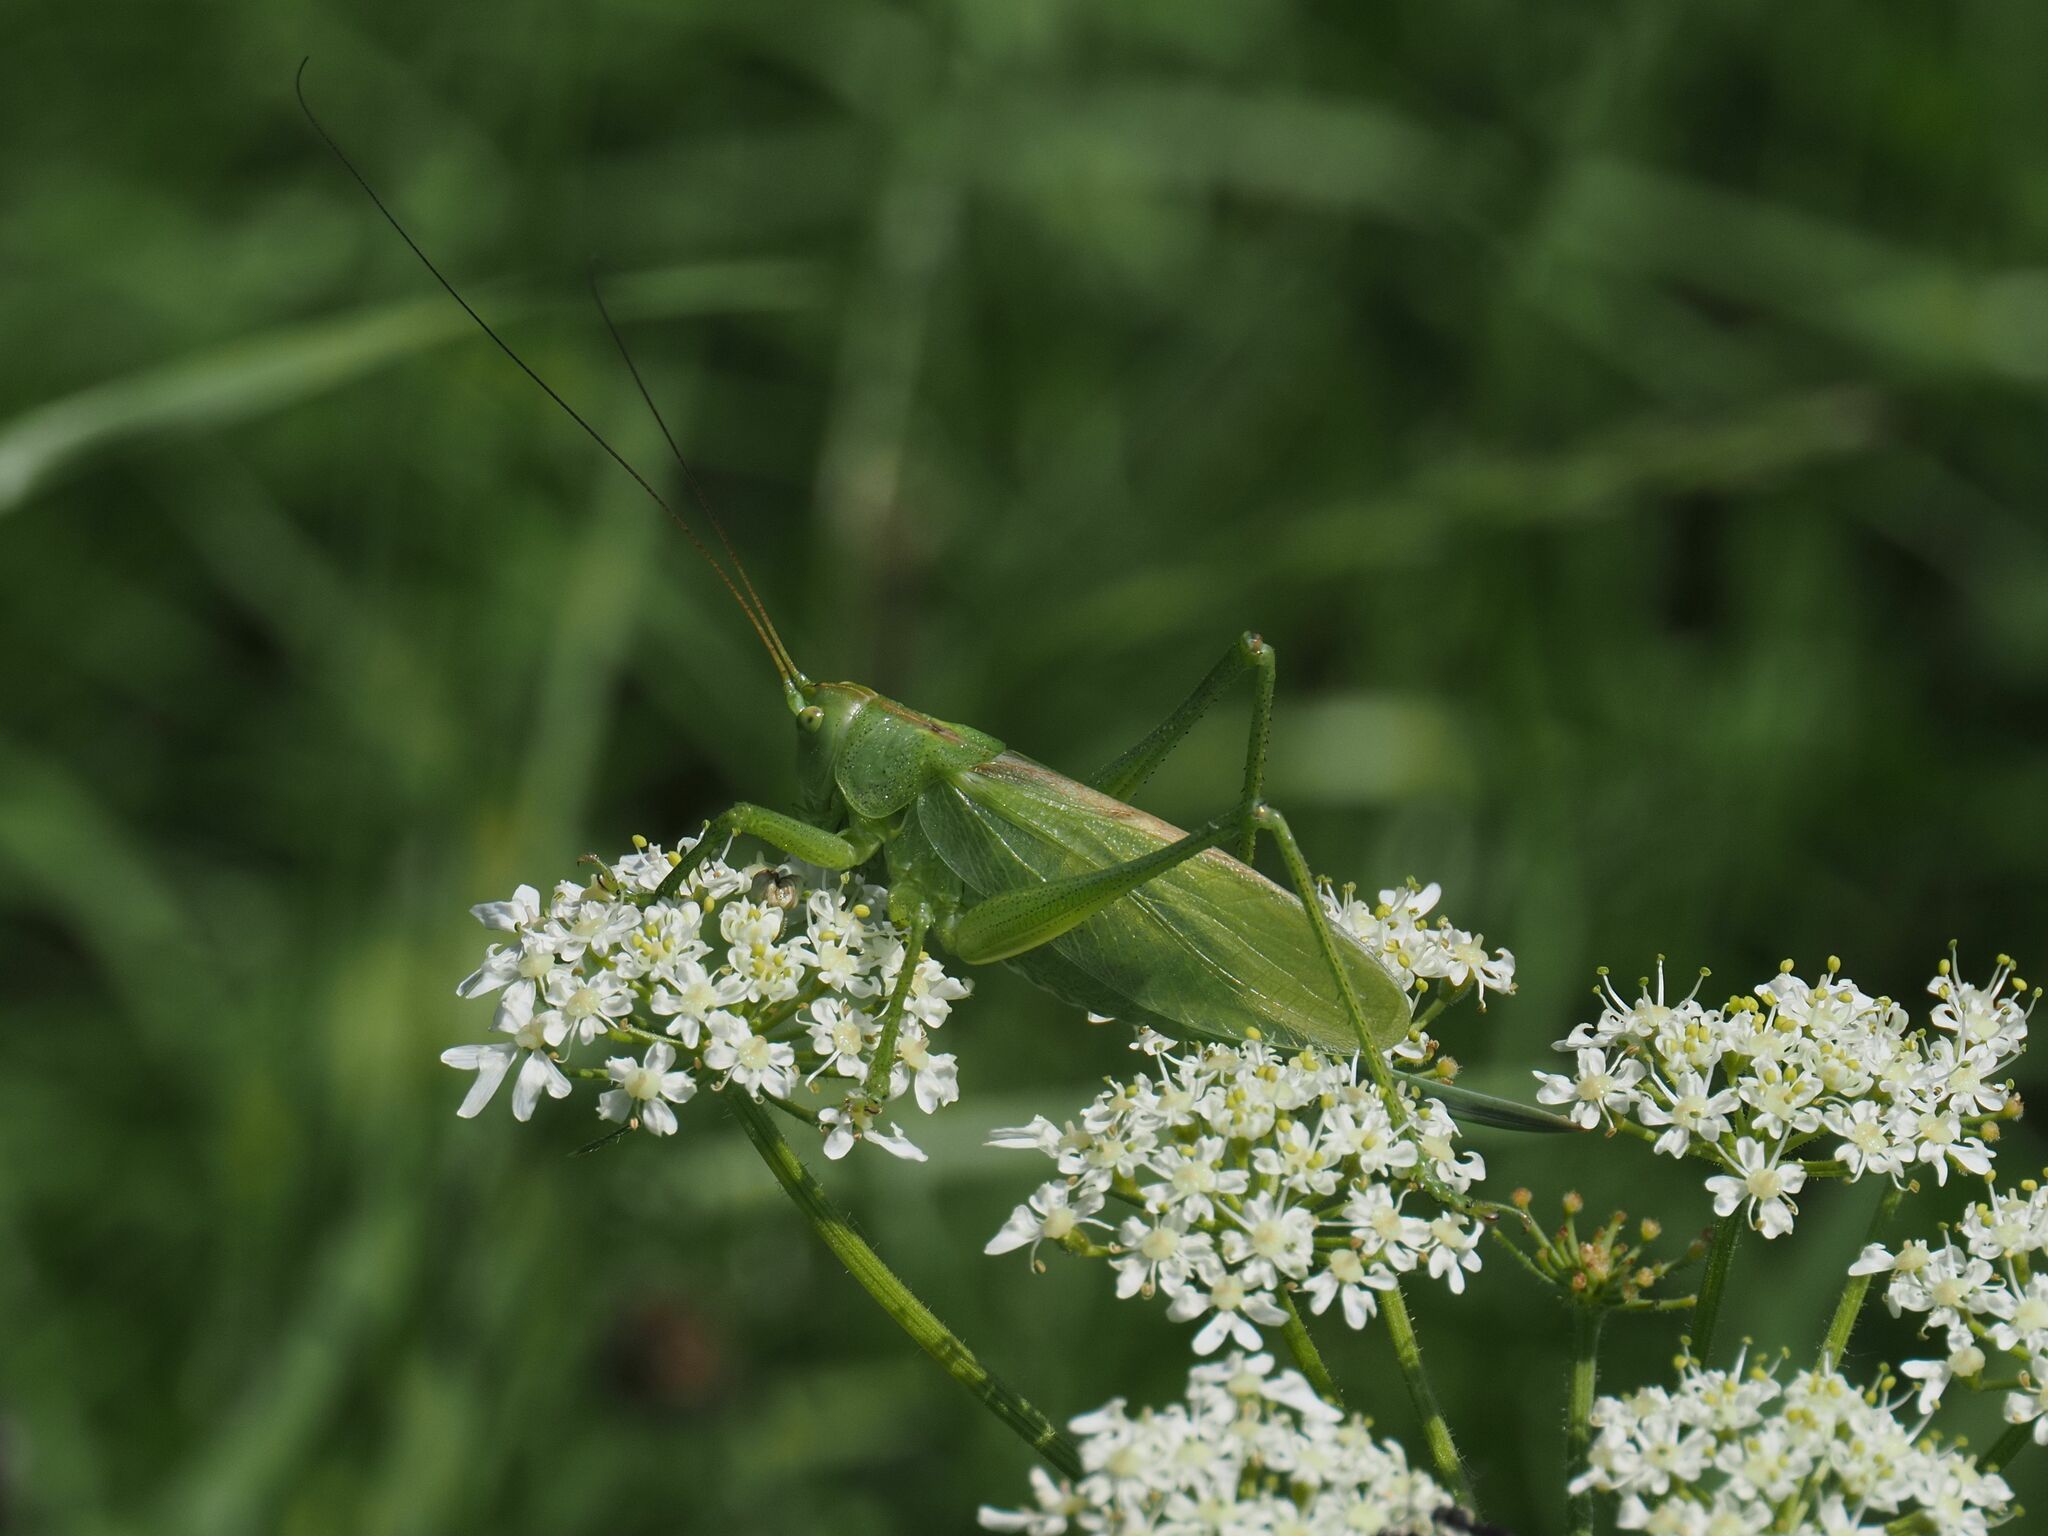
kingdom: Animalia
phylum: Arthropoda
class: Insecta
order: Orthoptera
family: Tettigoniidae
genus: Tettigonia
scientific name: Tettigonia cantans
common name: Upland green bush-cricket
